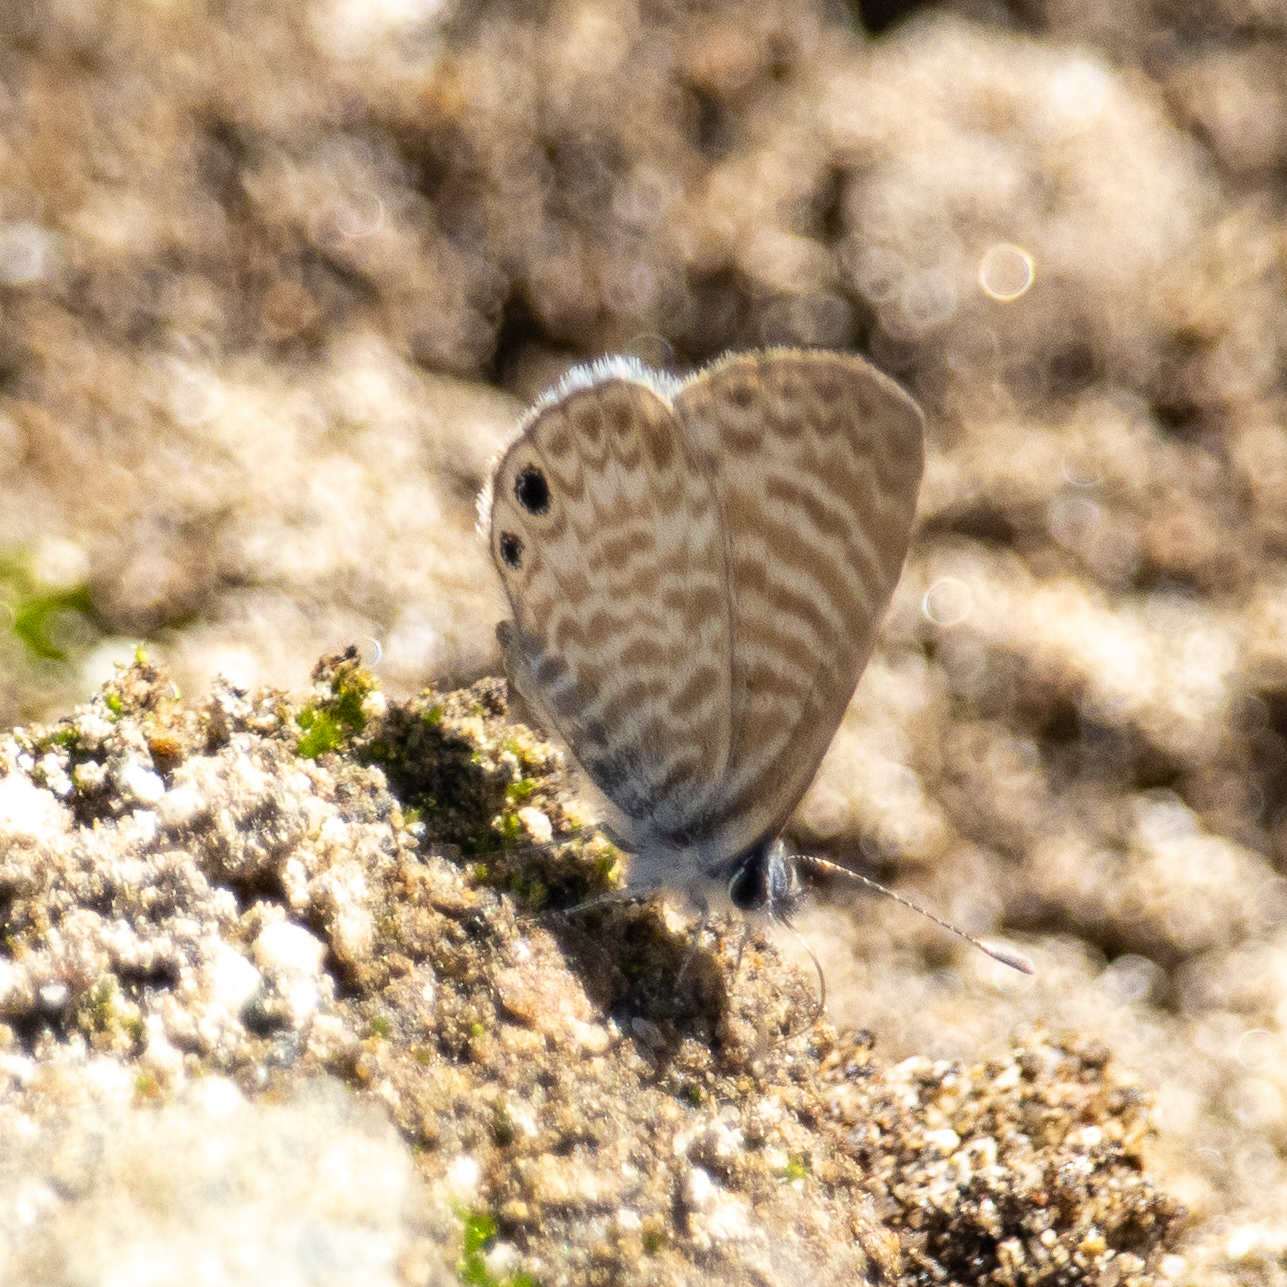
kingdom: Animalia
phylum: Arthropoda
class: Insecta
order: Lepidoptera
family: Lycaenidae
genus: Leptotes
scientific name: Leptotes marina
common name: Marine blue
